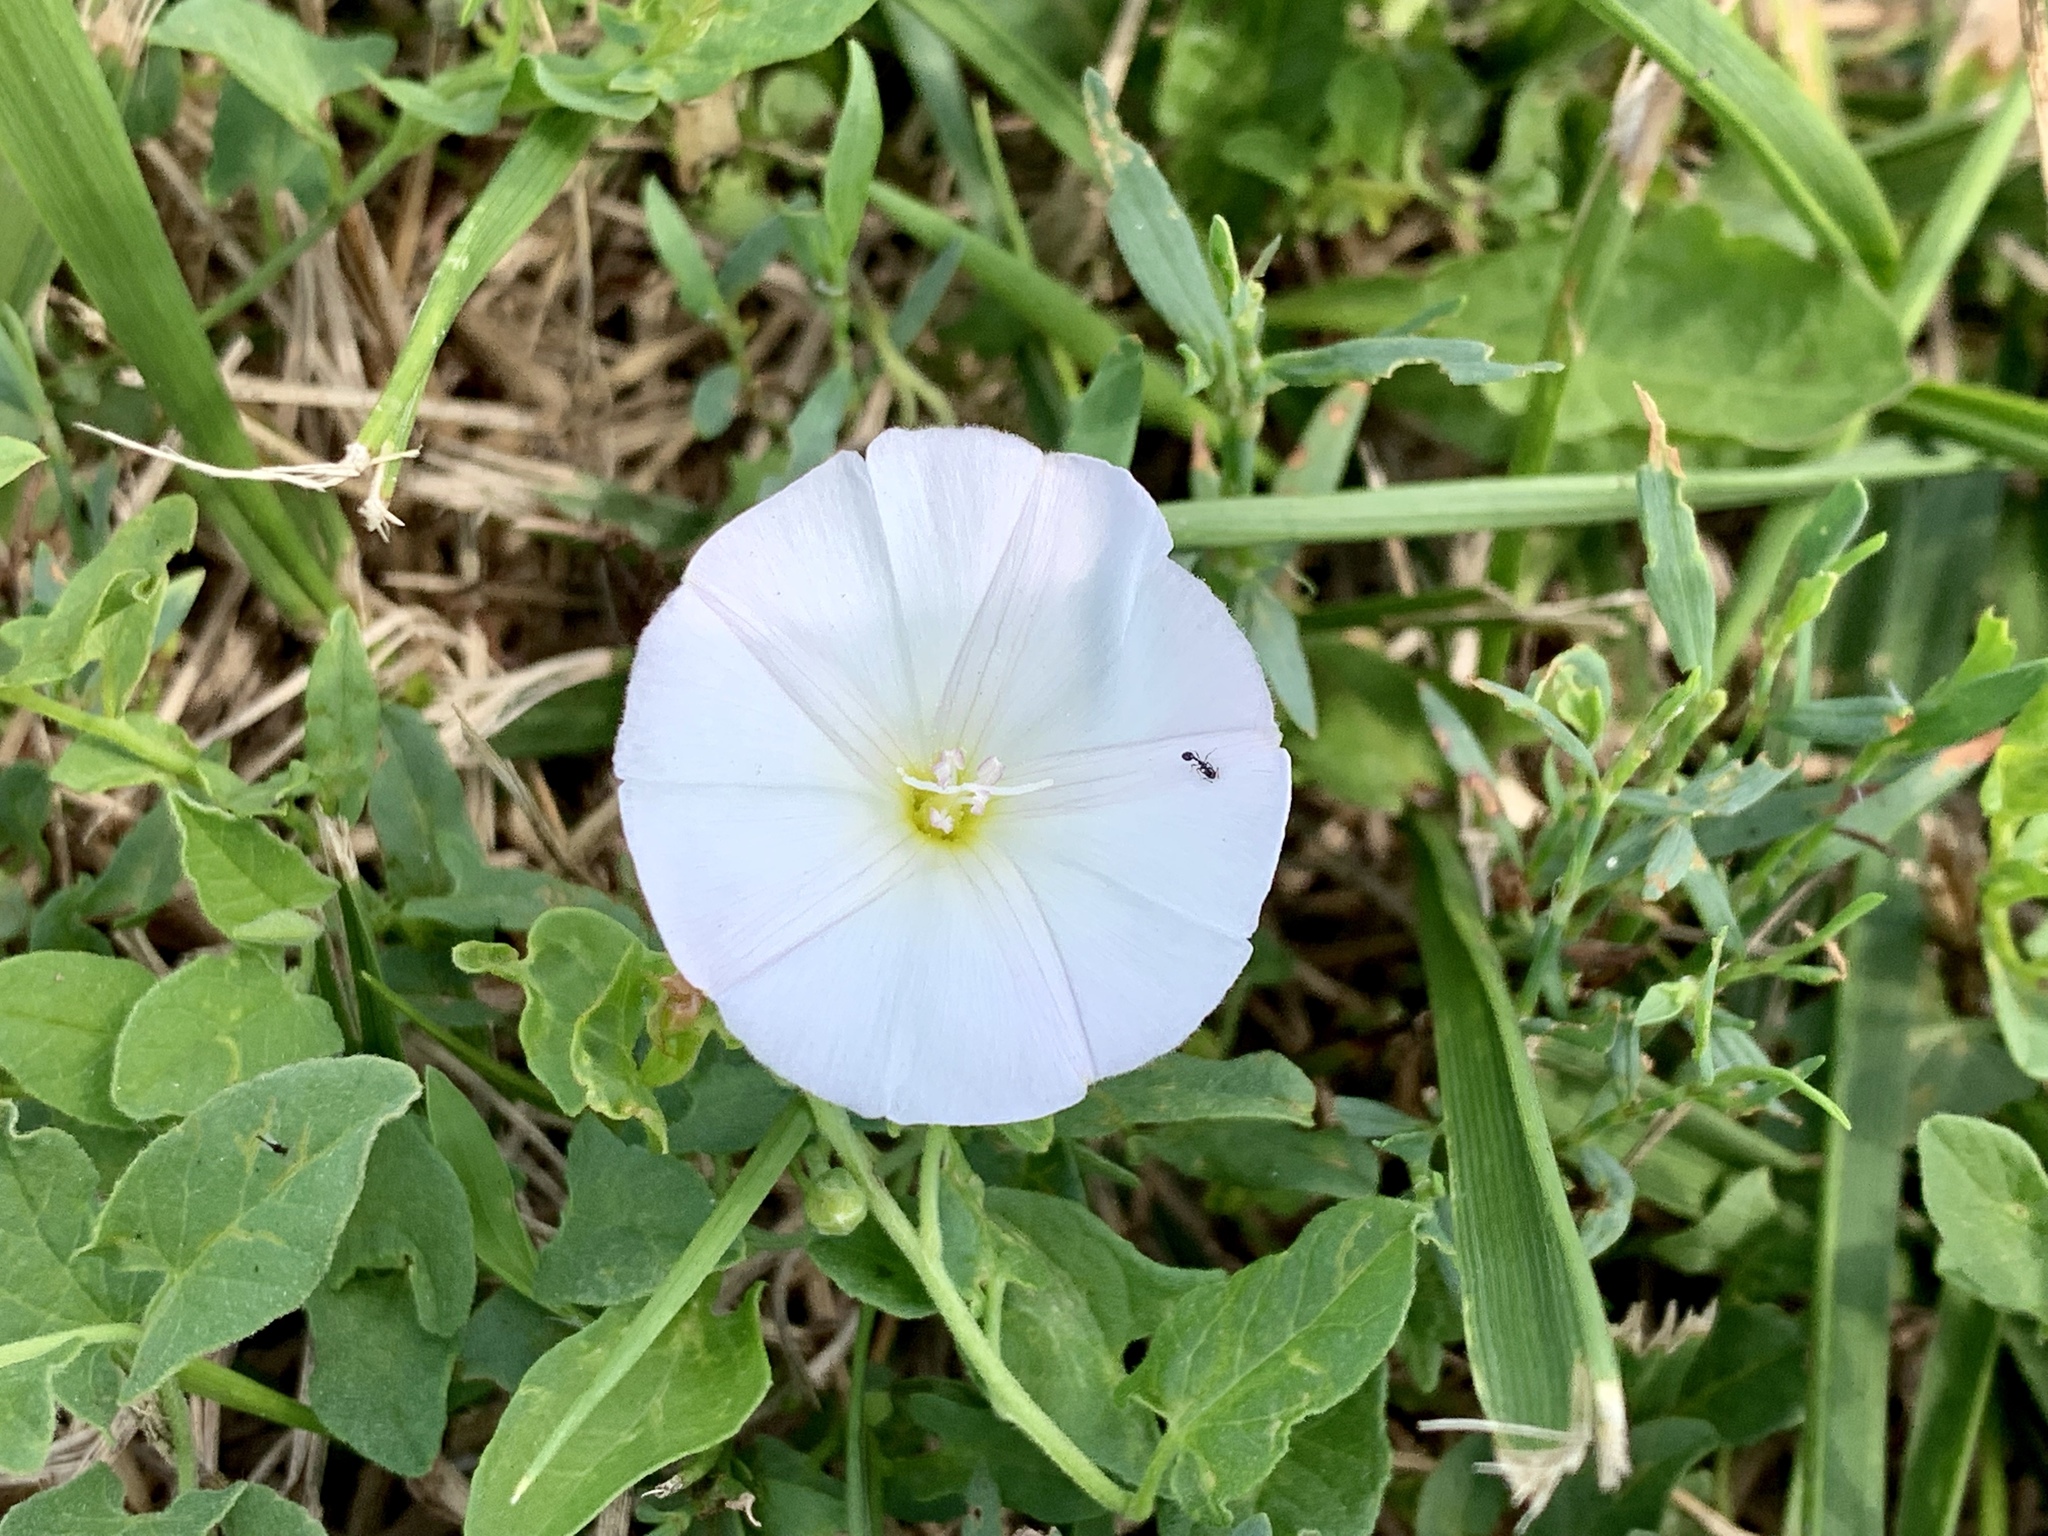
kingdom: Plantae
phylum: Tracheophyta
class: Magnoliopsida
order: Solanales
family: Convolvulaceae
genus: Convolvulus
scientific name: Convolvulus arvensis
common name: Field bindweed
